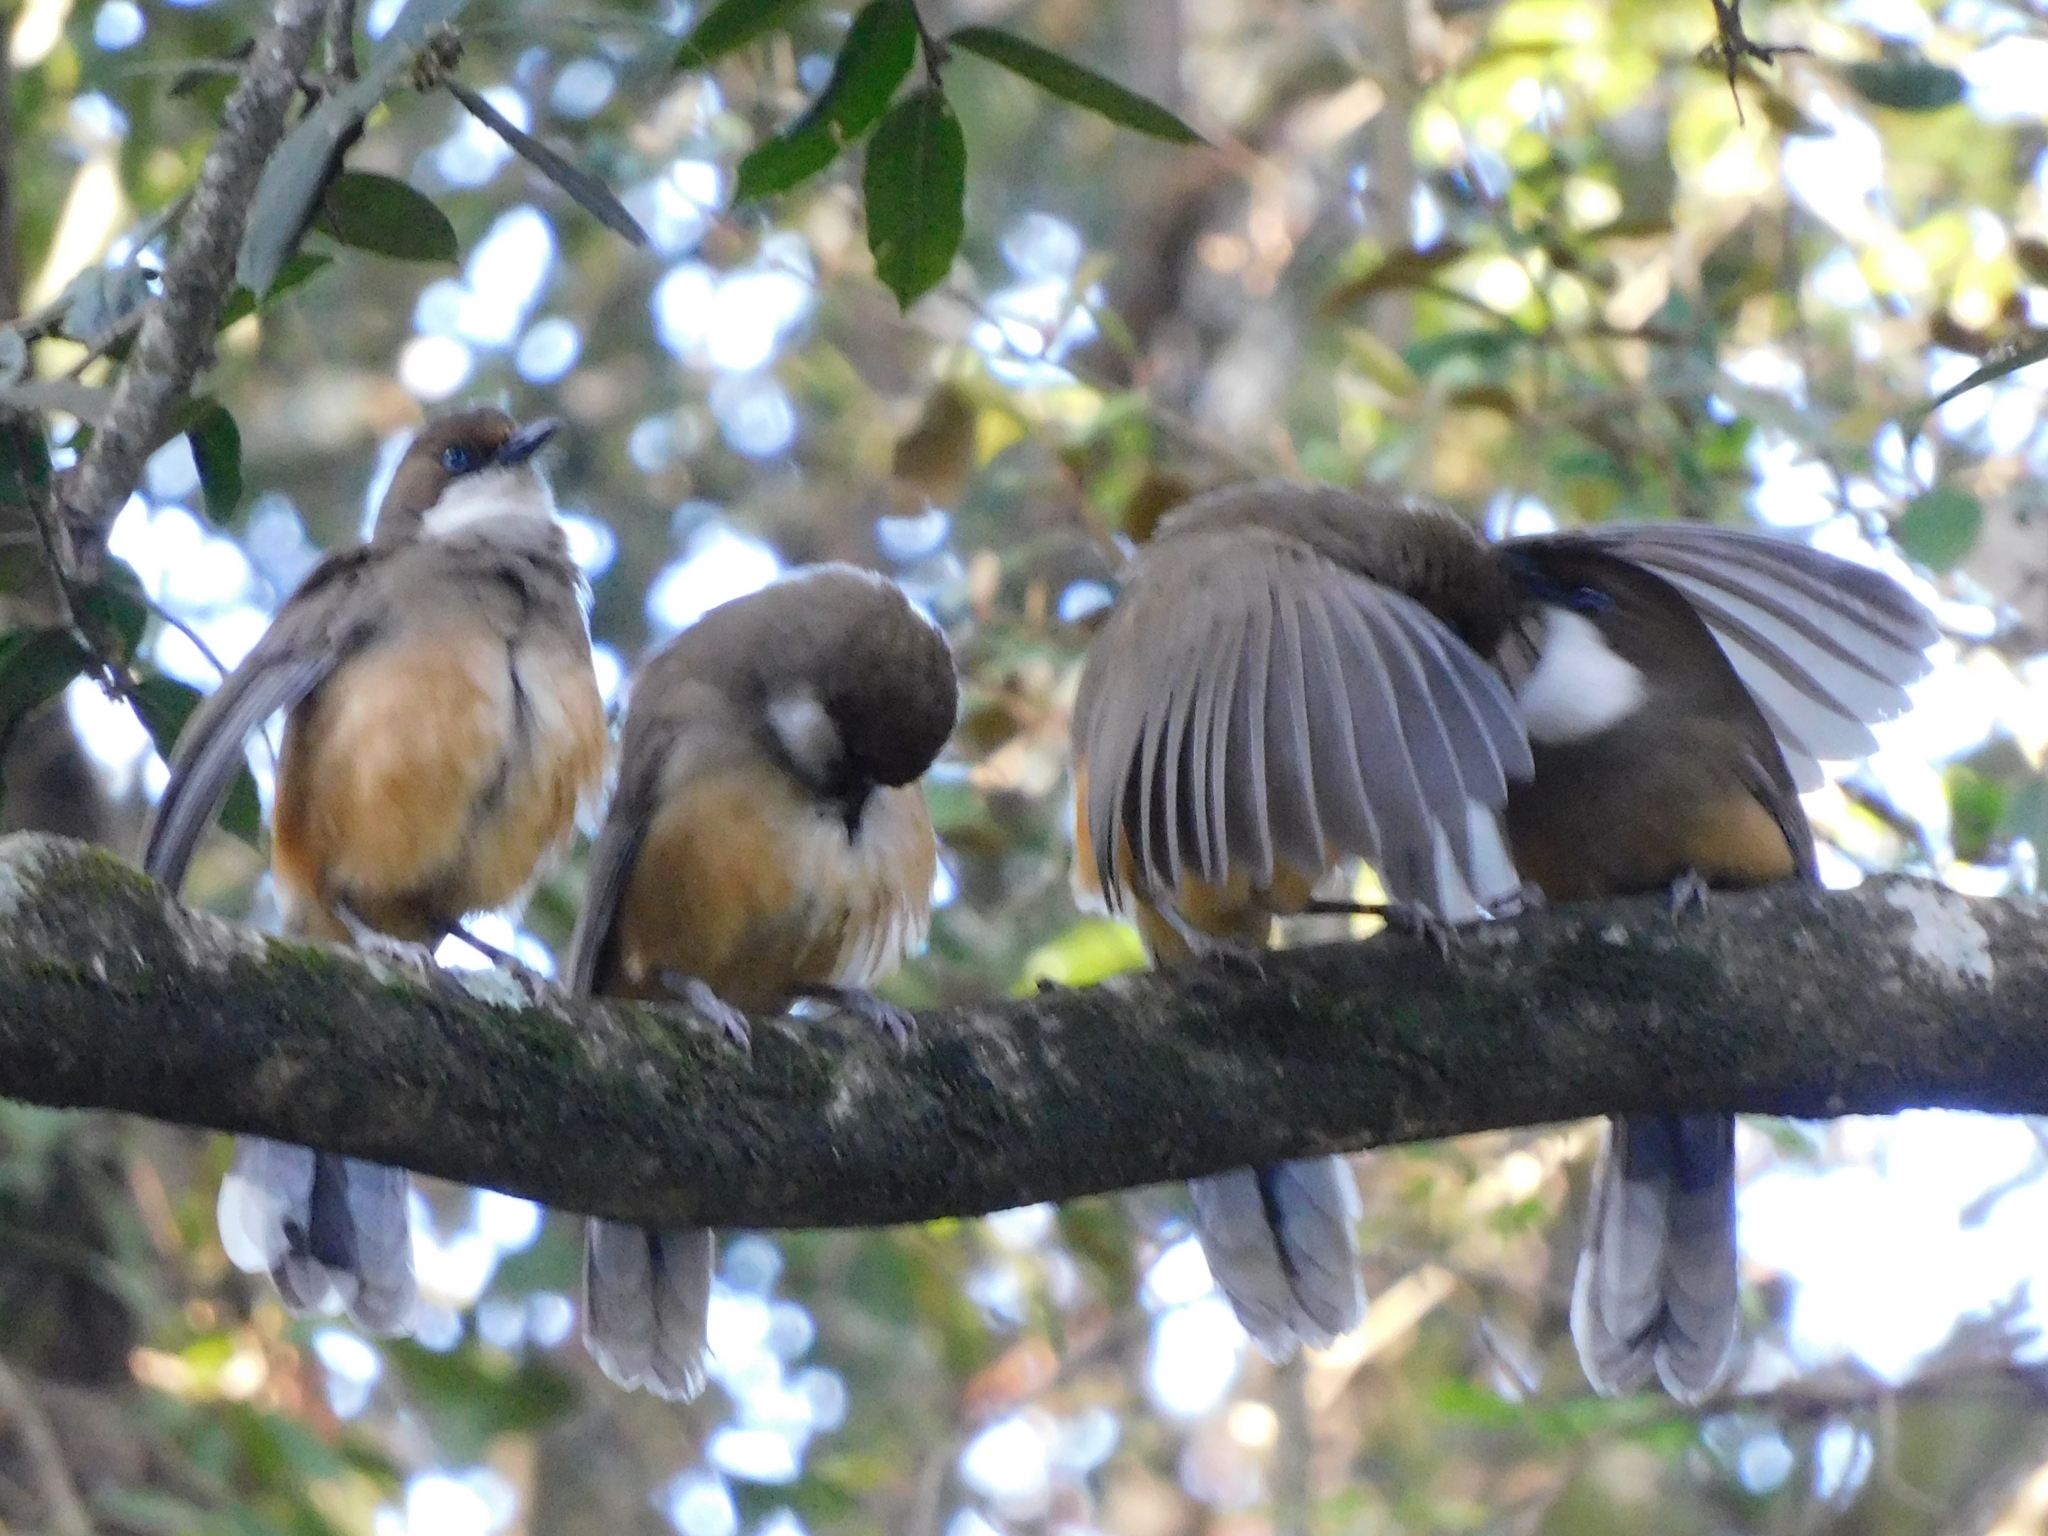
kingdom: Animalia
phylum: Chordata
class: Aves
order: Passeriformes
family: Leiothrichidae
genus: Garrulax
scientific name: Garrulax albogularis
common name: White-throated laughingthrush
